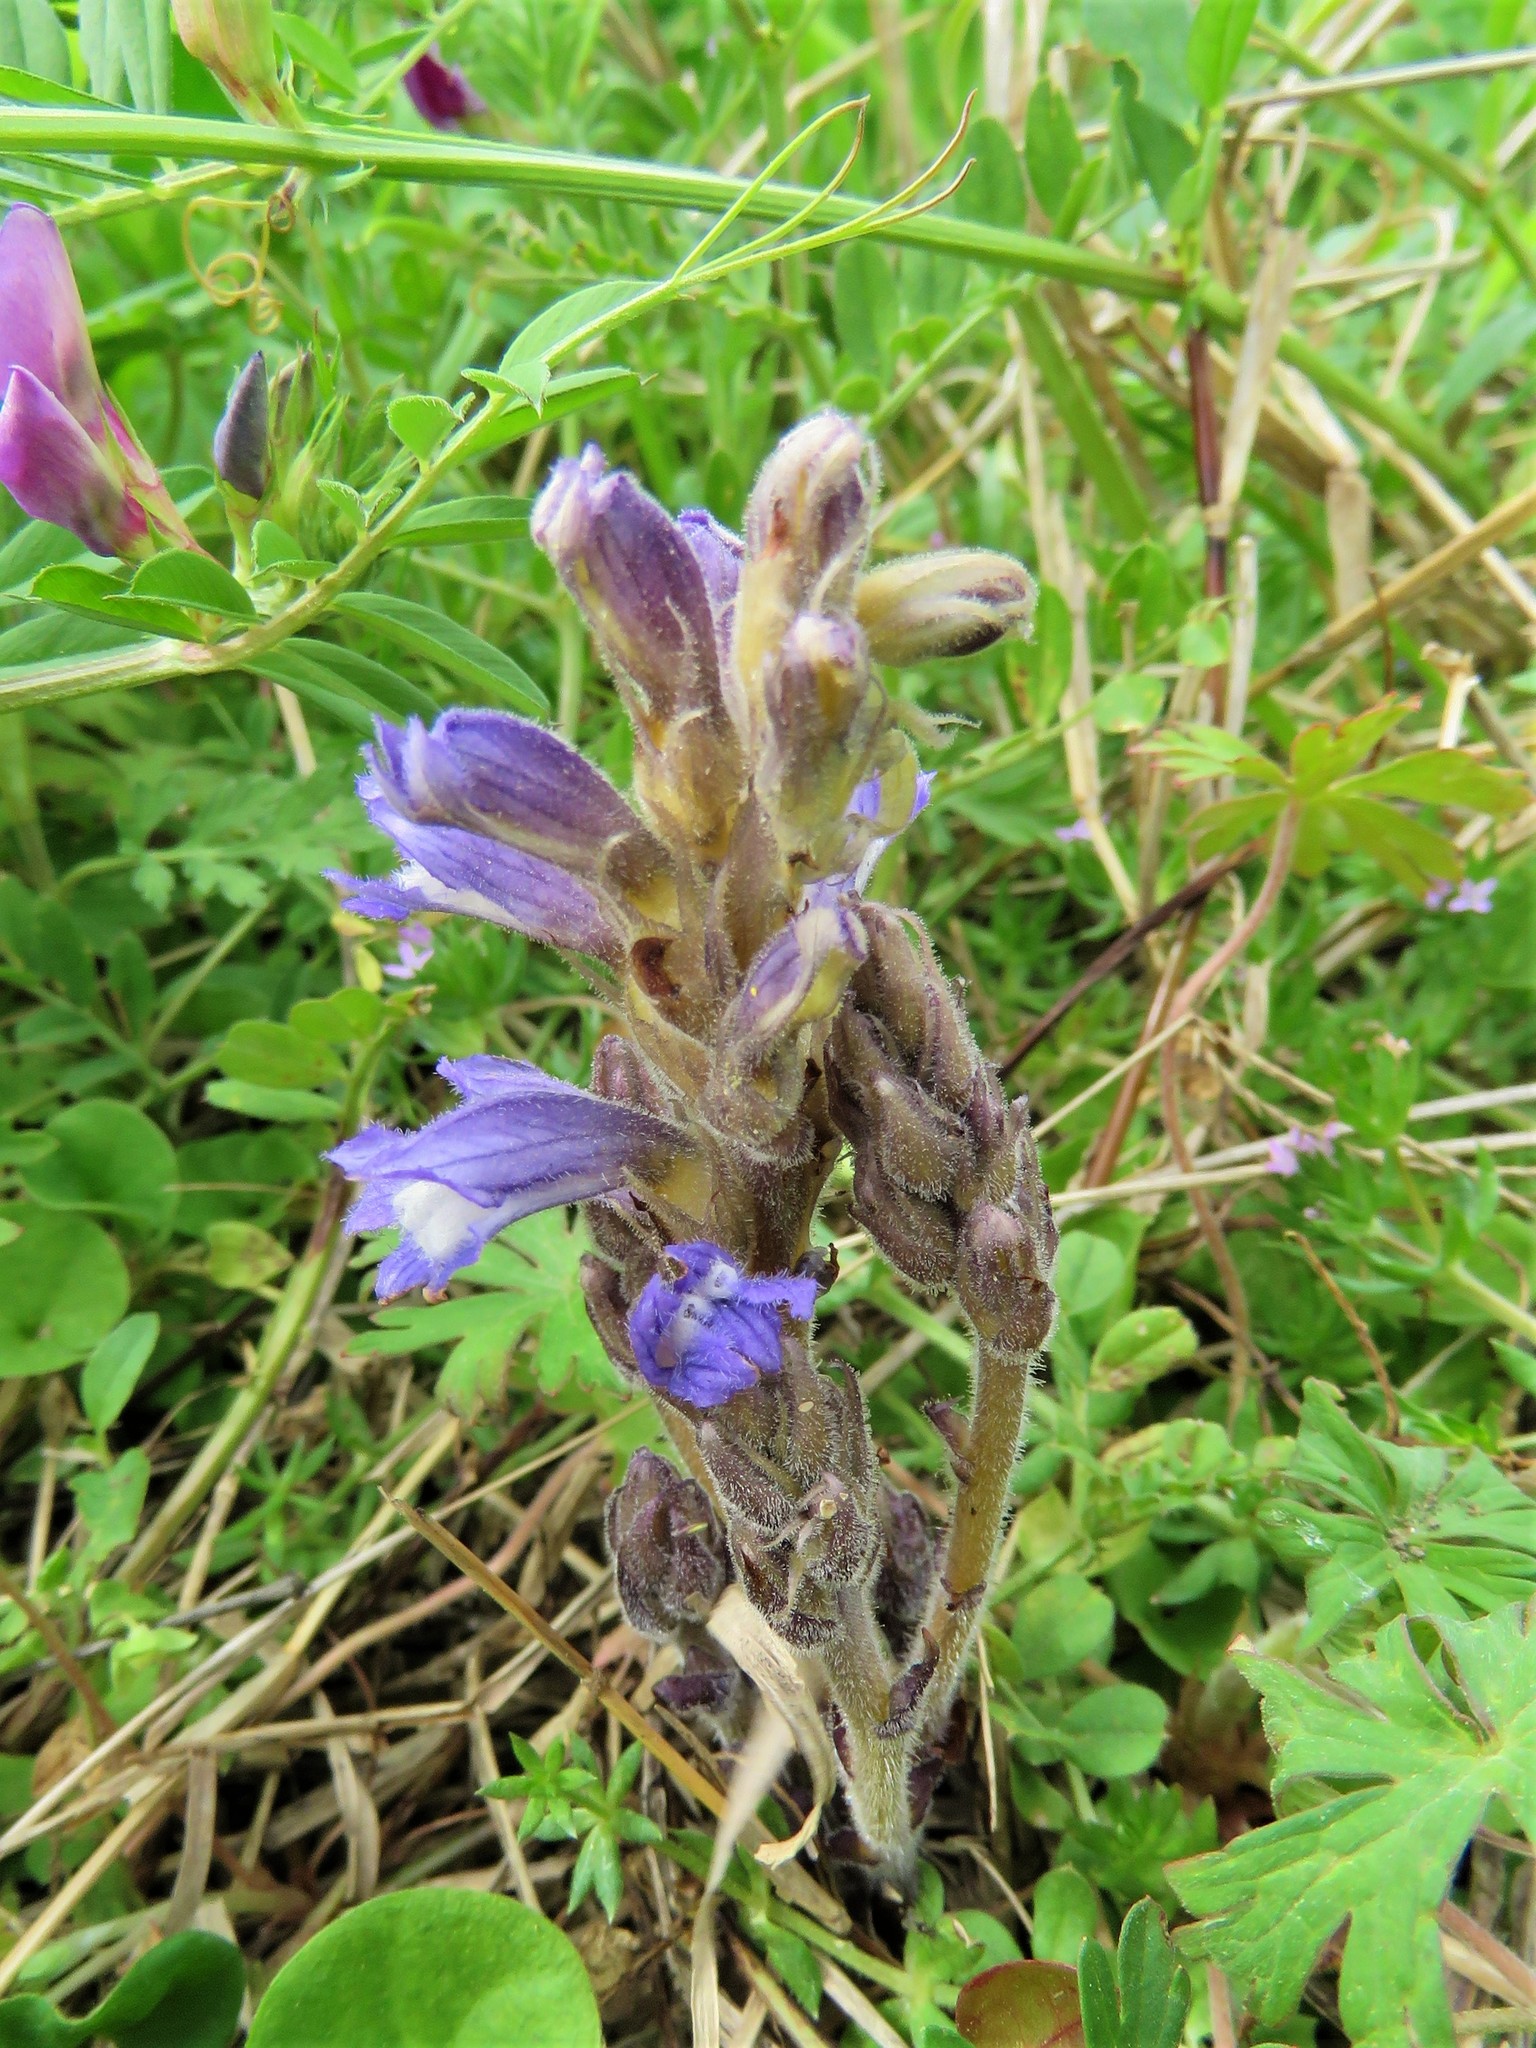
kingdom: Plantae
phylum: Tracheophyta
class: Magnoliopsida
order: Lamiales
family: Orobanchaceae
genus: Phelipanche
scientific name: Phelipanche ramosa
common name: Branched broomrape
